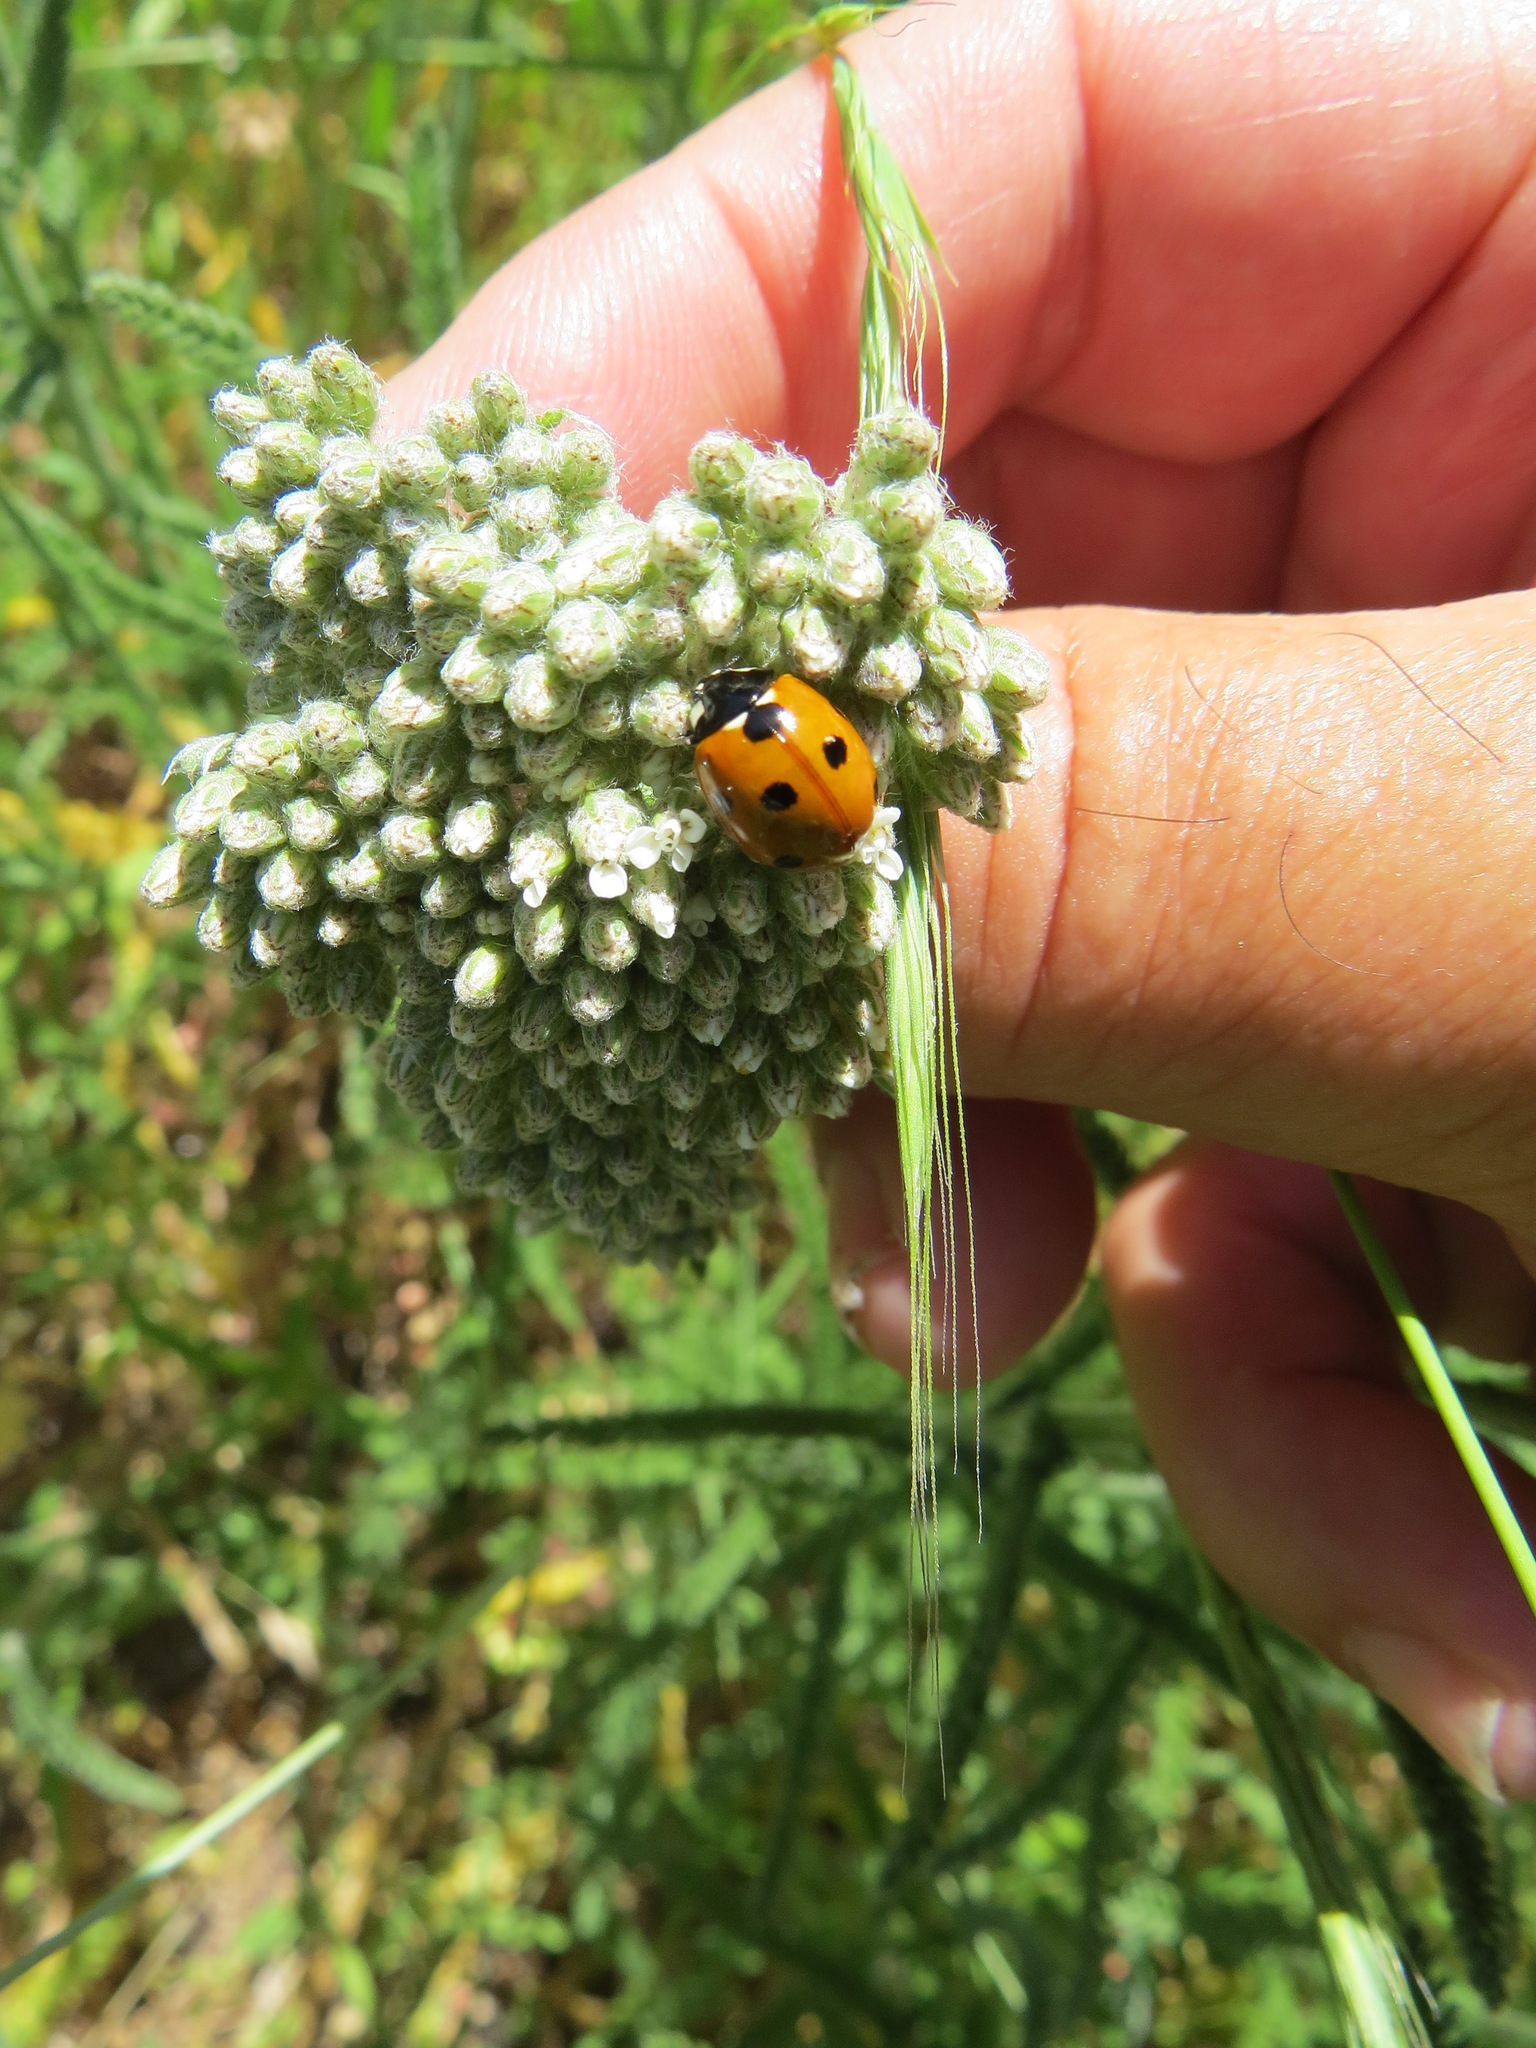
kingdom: Animalia
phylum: Arthropoda
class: Insecta
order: Coleoptera
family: Coccinellidae
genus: Coccinella
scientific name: Coccinella septempunctata
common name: Sevenspotted lady beetle
